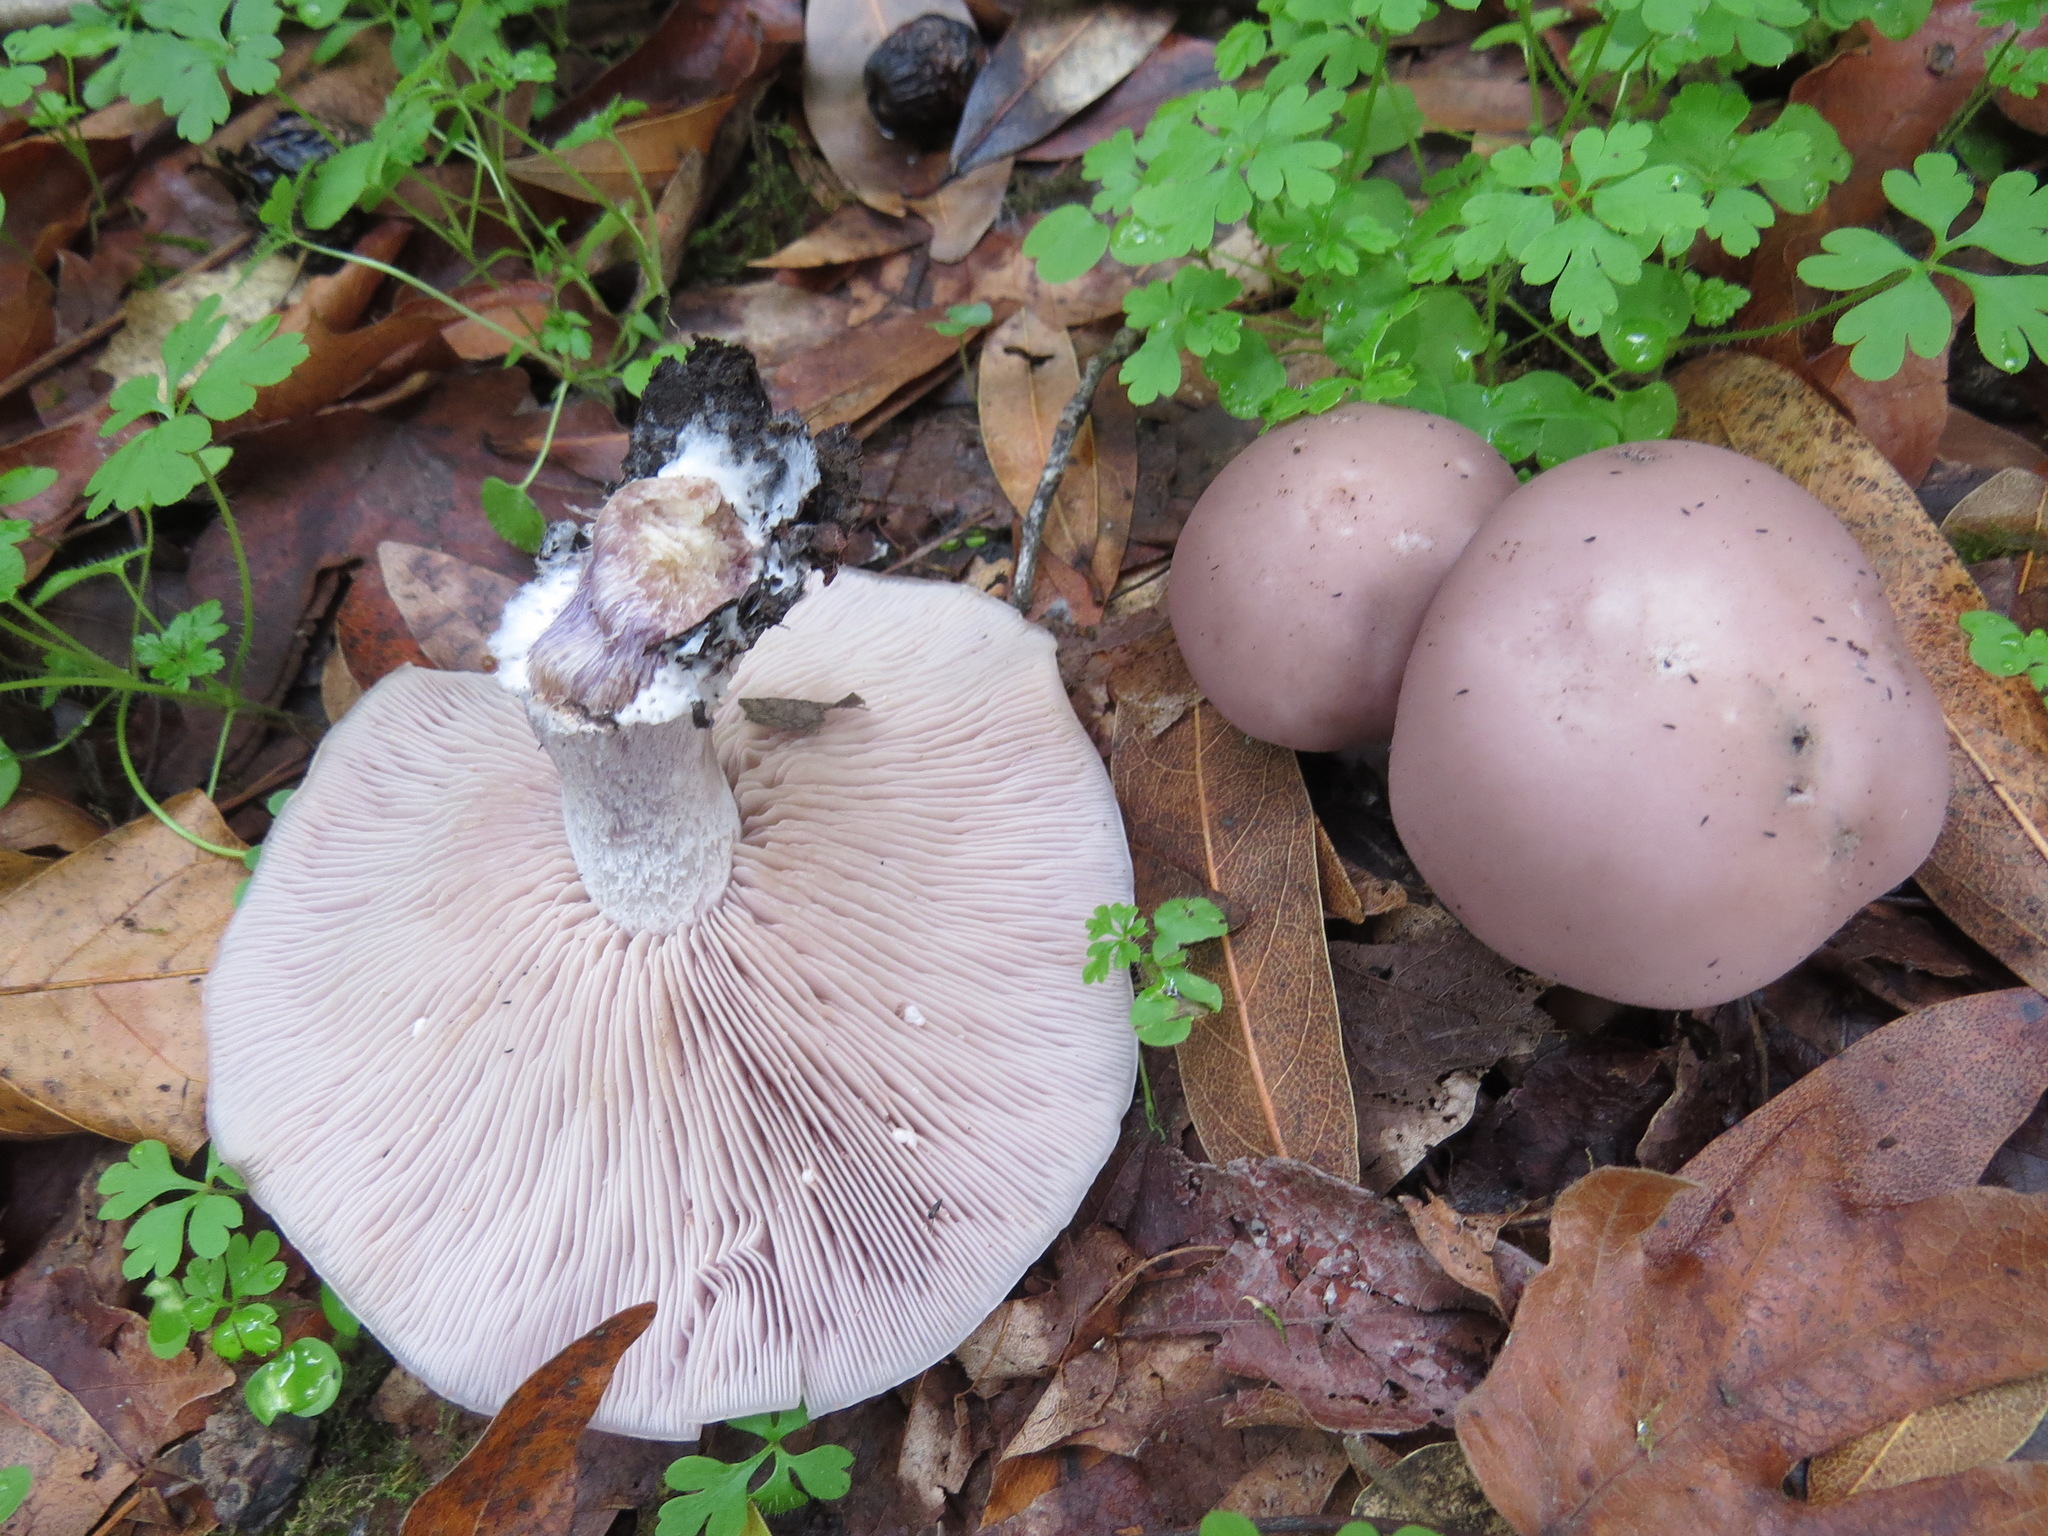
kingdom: Fungi
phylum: Basidiomycota
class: Agaricomycetes
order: Agaricales
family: Tricholomataceae
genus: Collybia
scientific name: Collybia
